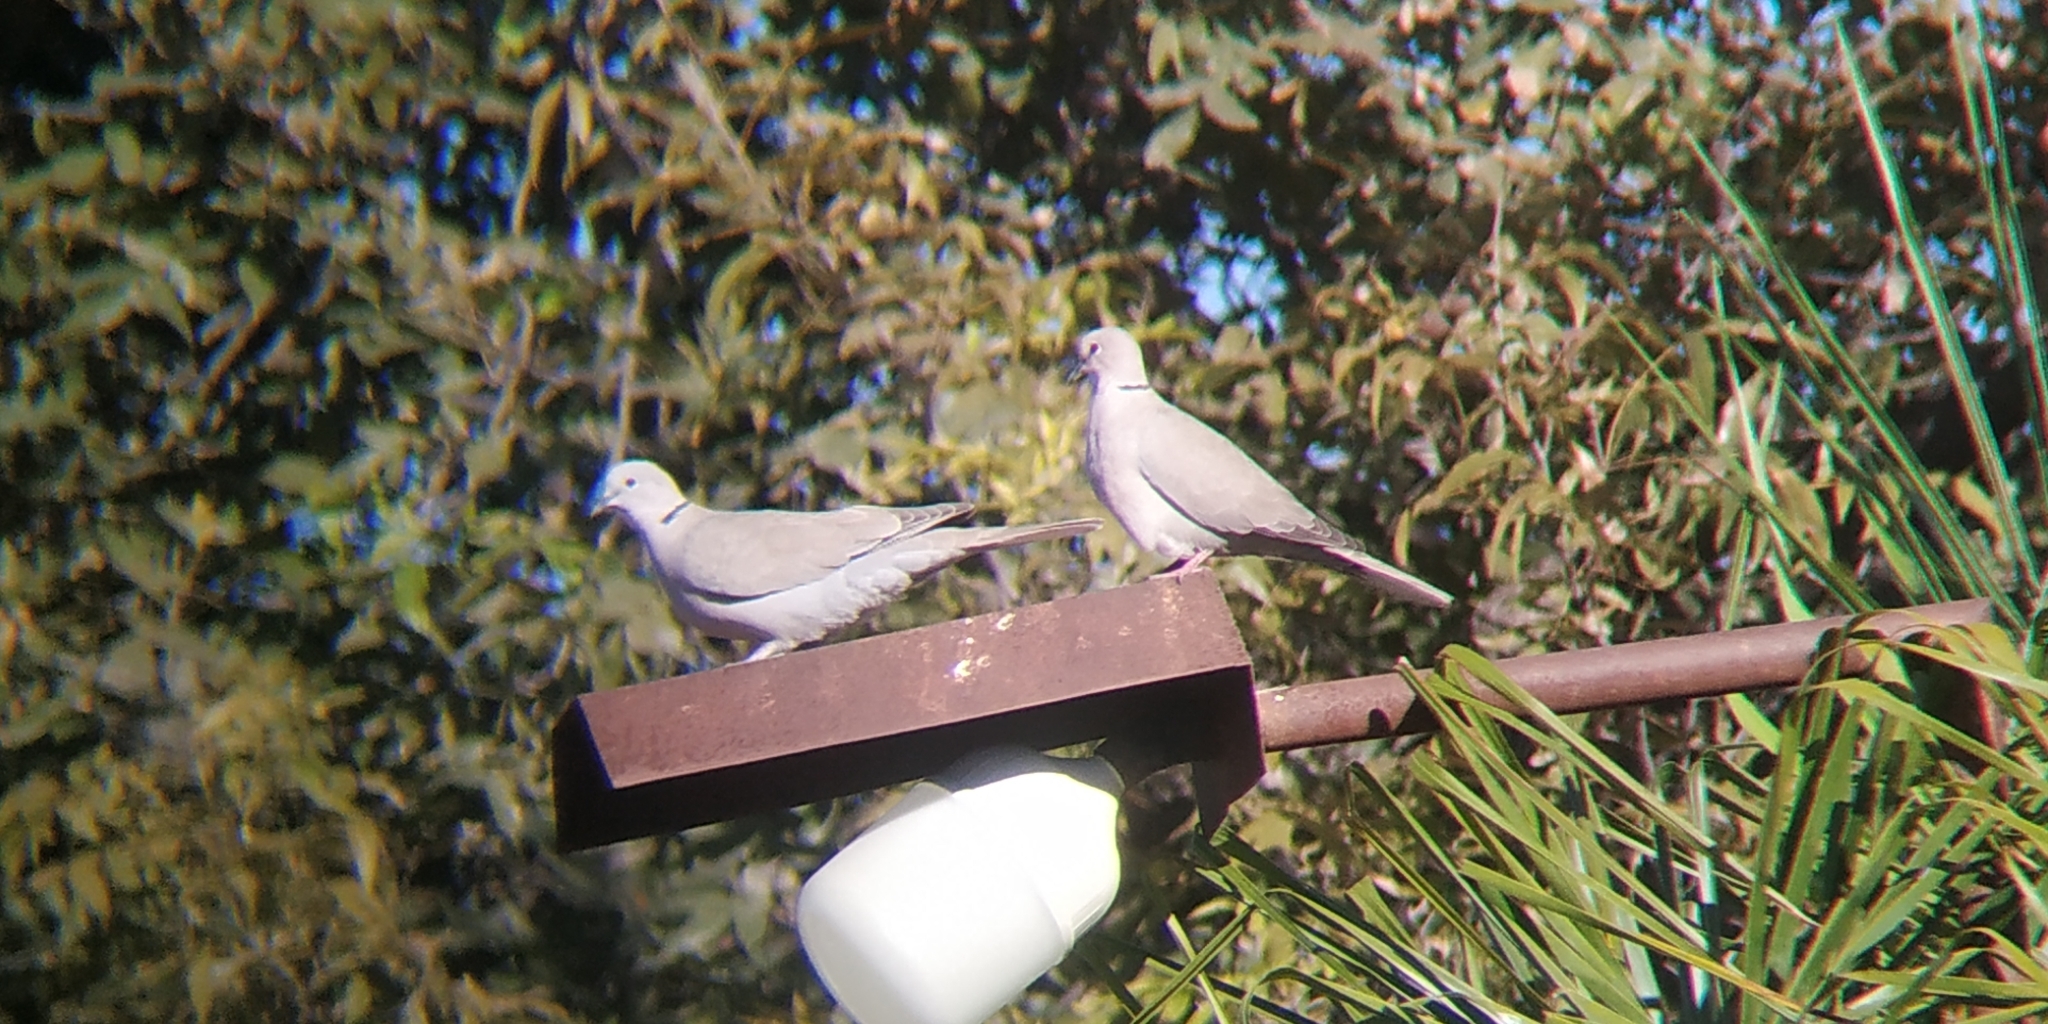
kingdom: Animalia
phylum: Chordata
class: Aves
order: Columbiformes
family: Columbidae
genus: Streptopelia
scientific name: Streptopelia decaocto
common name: Eurasian collared dove
